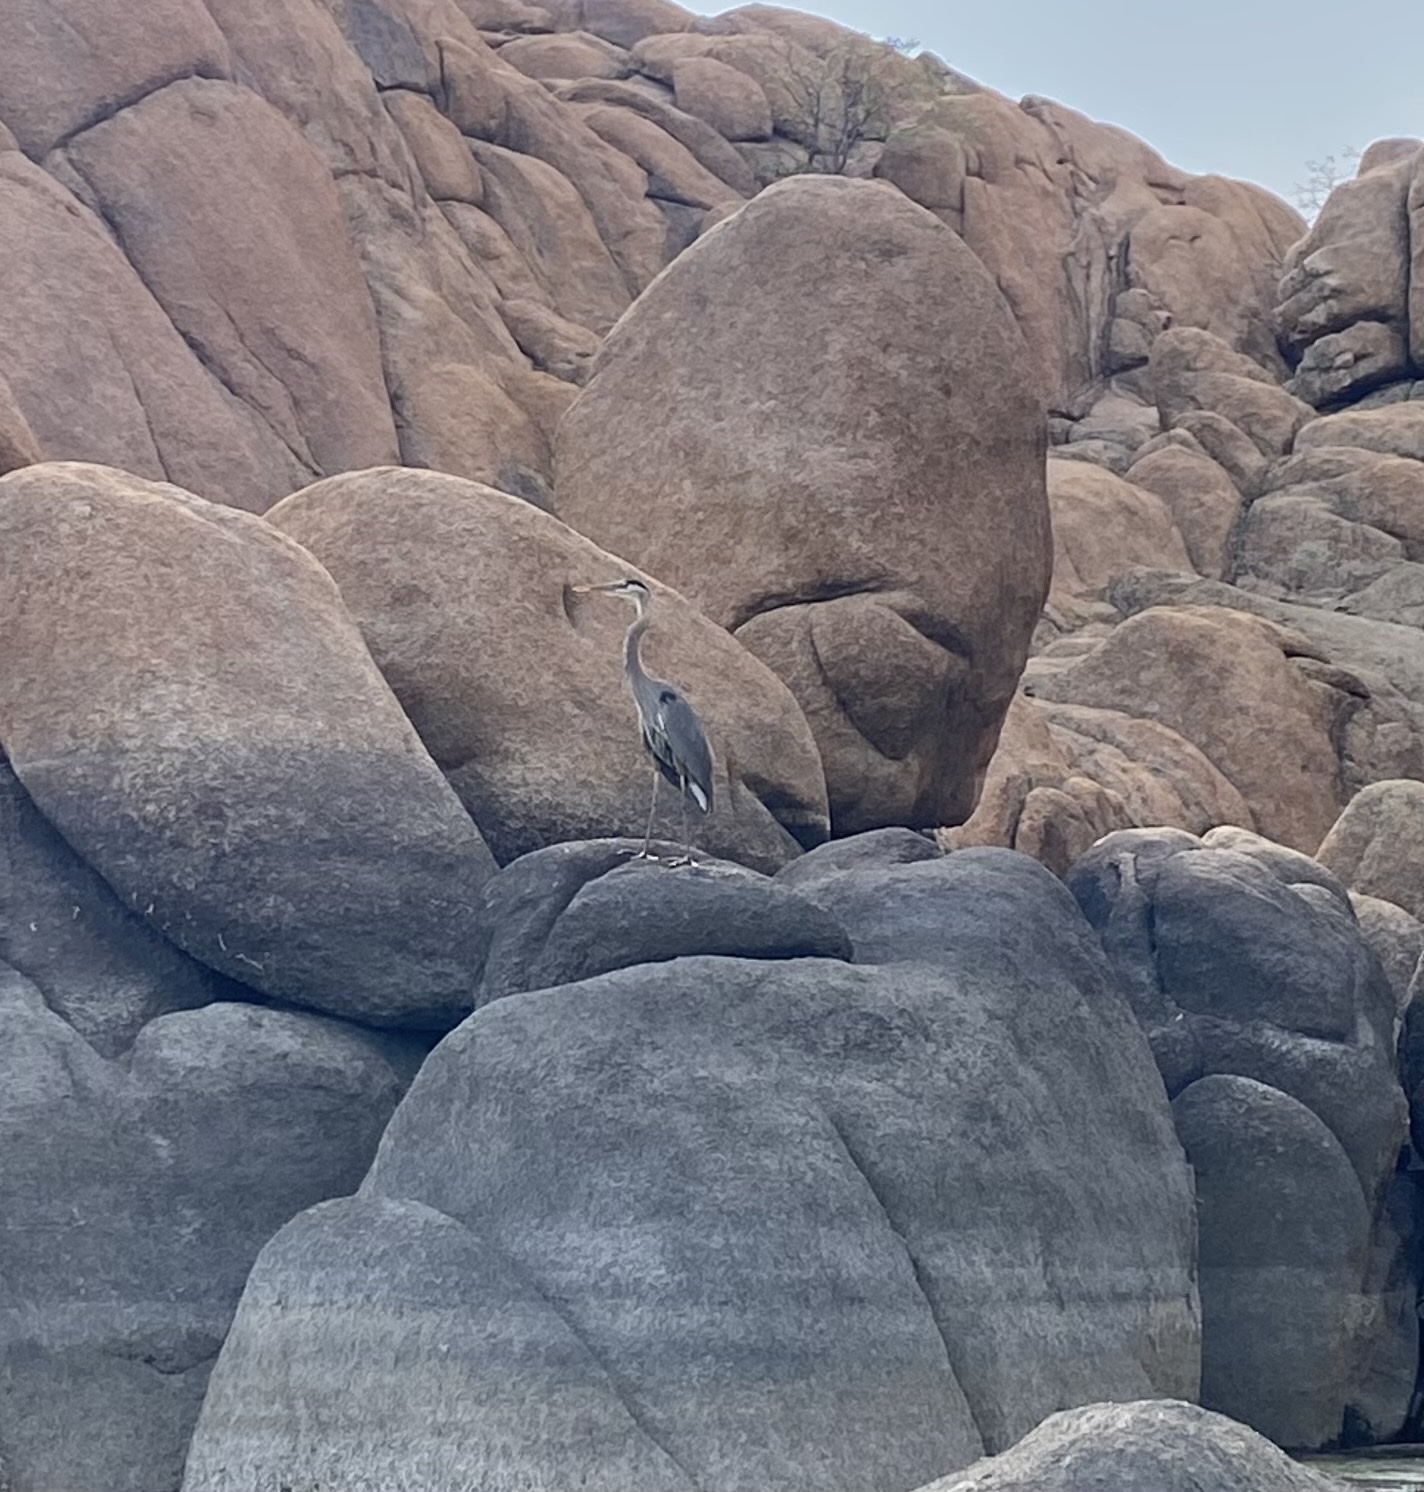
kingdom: Animalia
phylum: Chordata
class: Aves
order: Pelecaniformes
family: Ardeidae
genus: Ardea
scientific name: Ardea herodias
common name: Great blue heron
